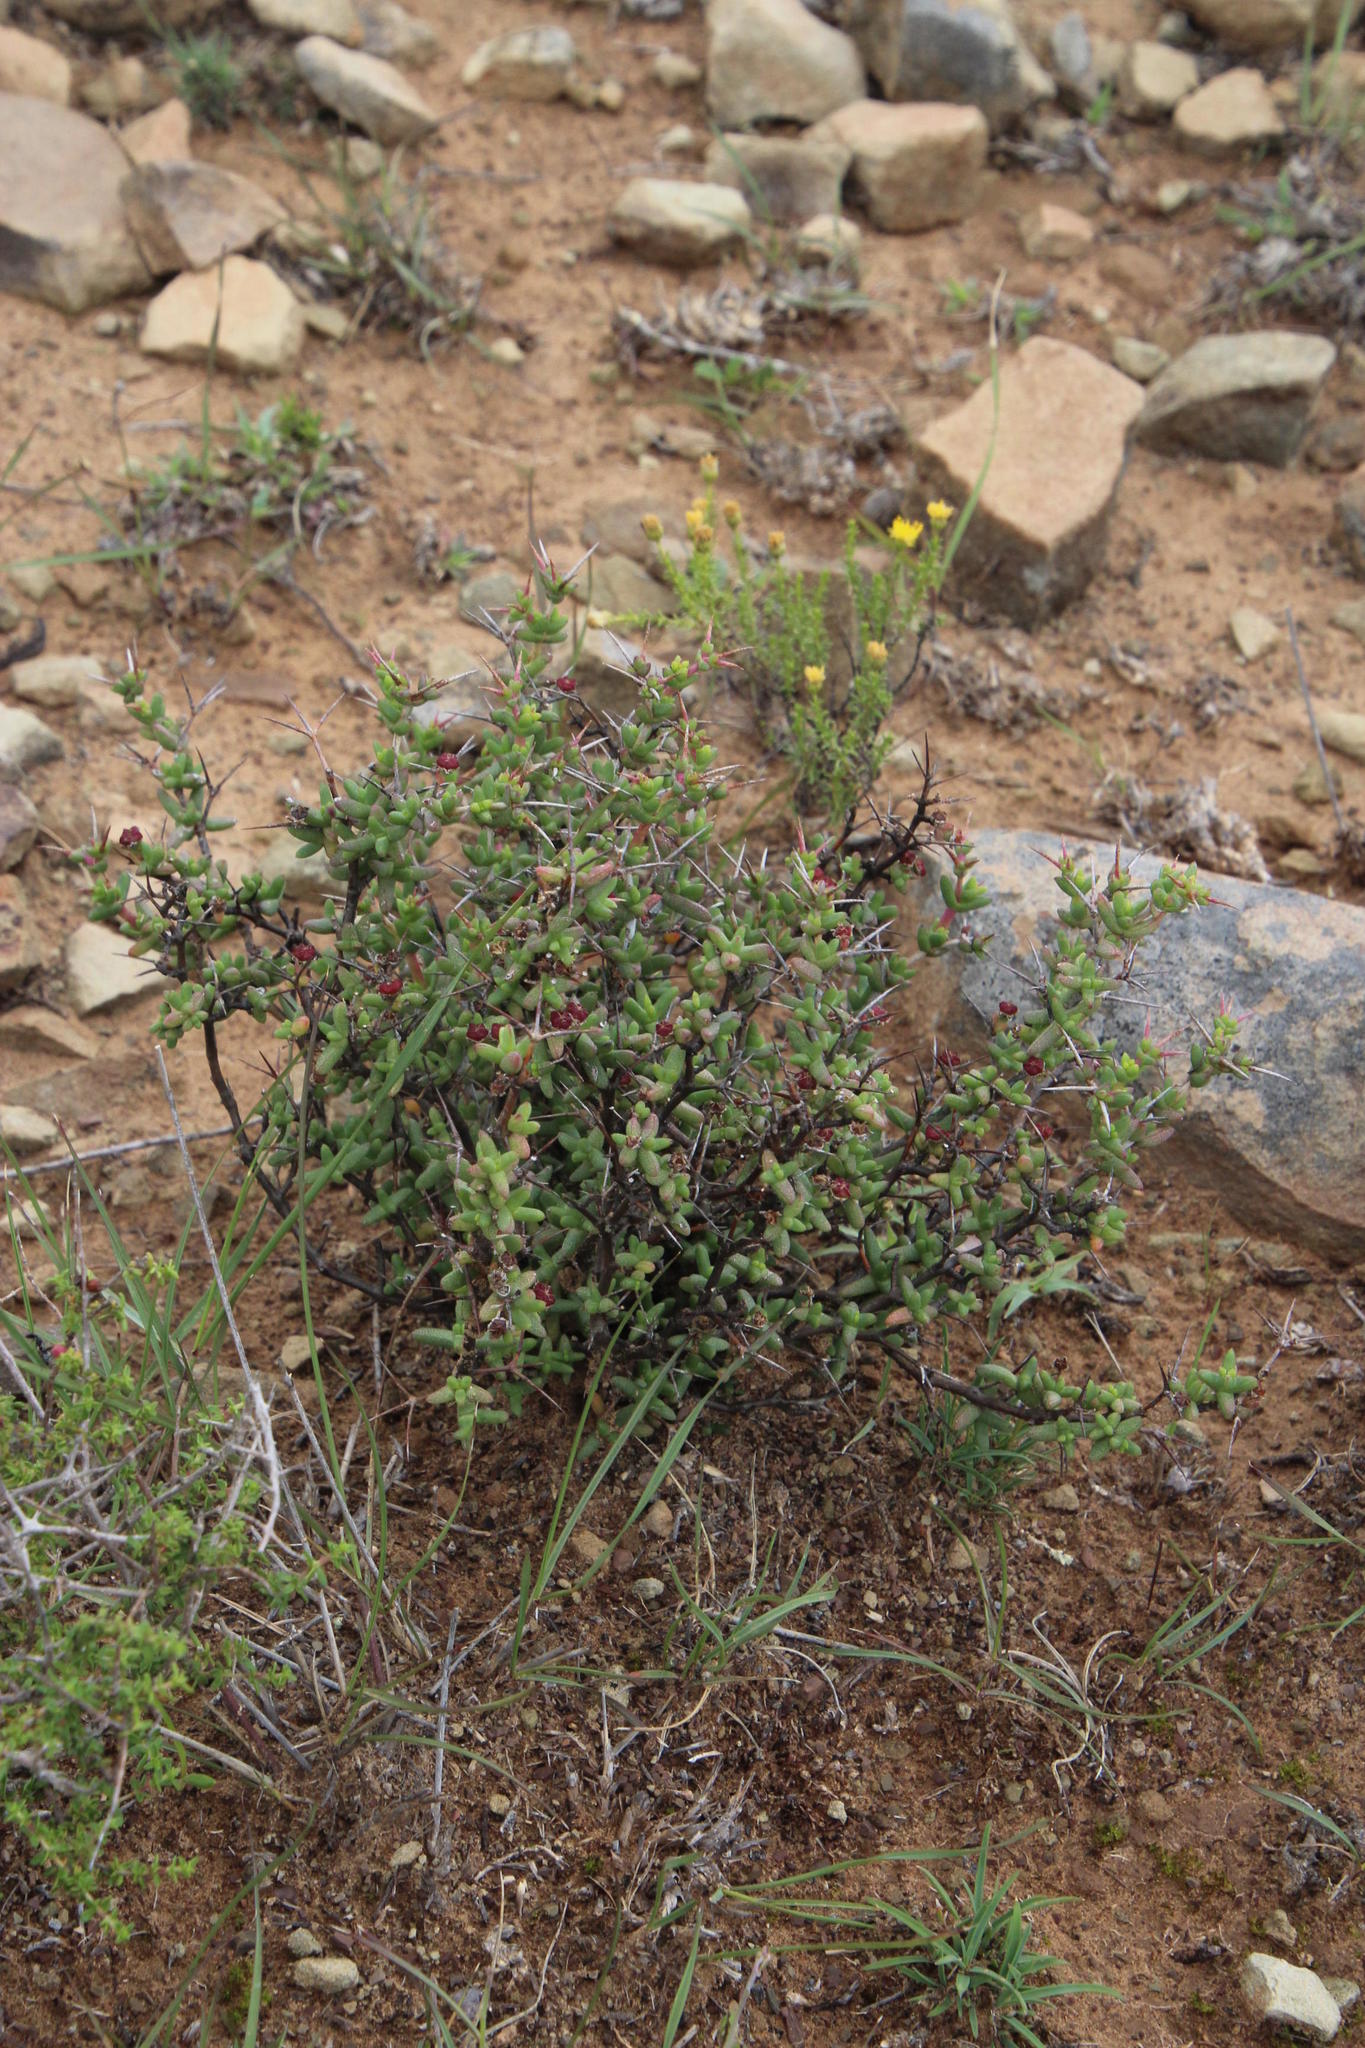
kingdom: Plantae
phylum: Tracheophyta
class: Magnoliopsida
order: Caryophyllales
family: Aizoaceae
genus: Ruschia
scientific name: Ruschia cradockensis
